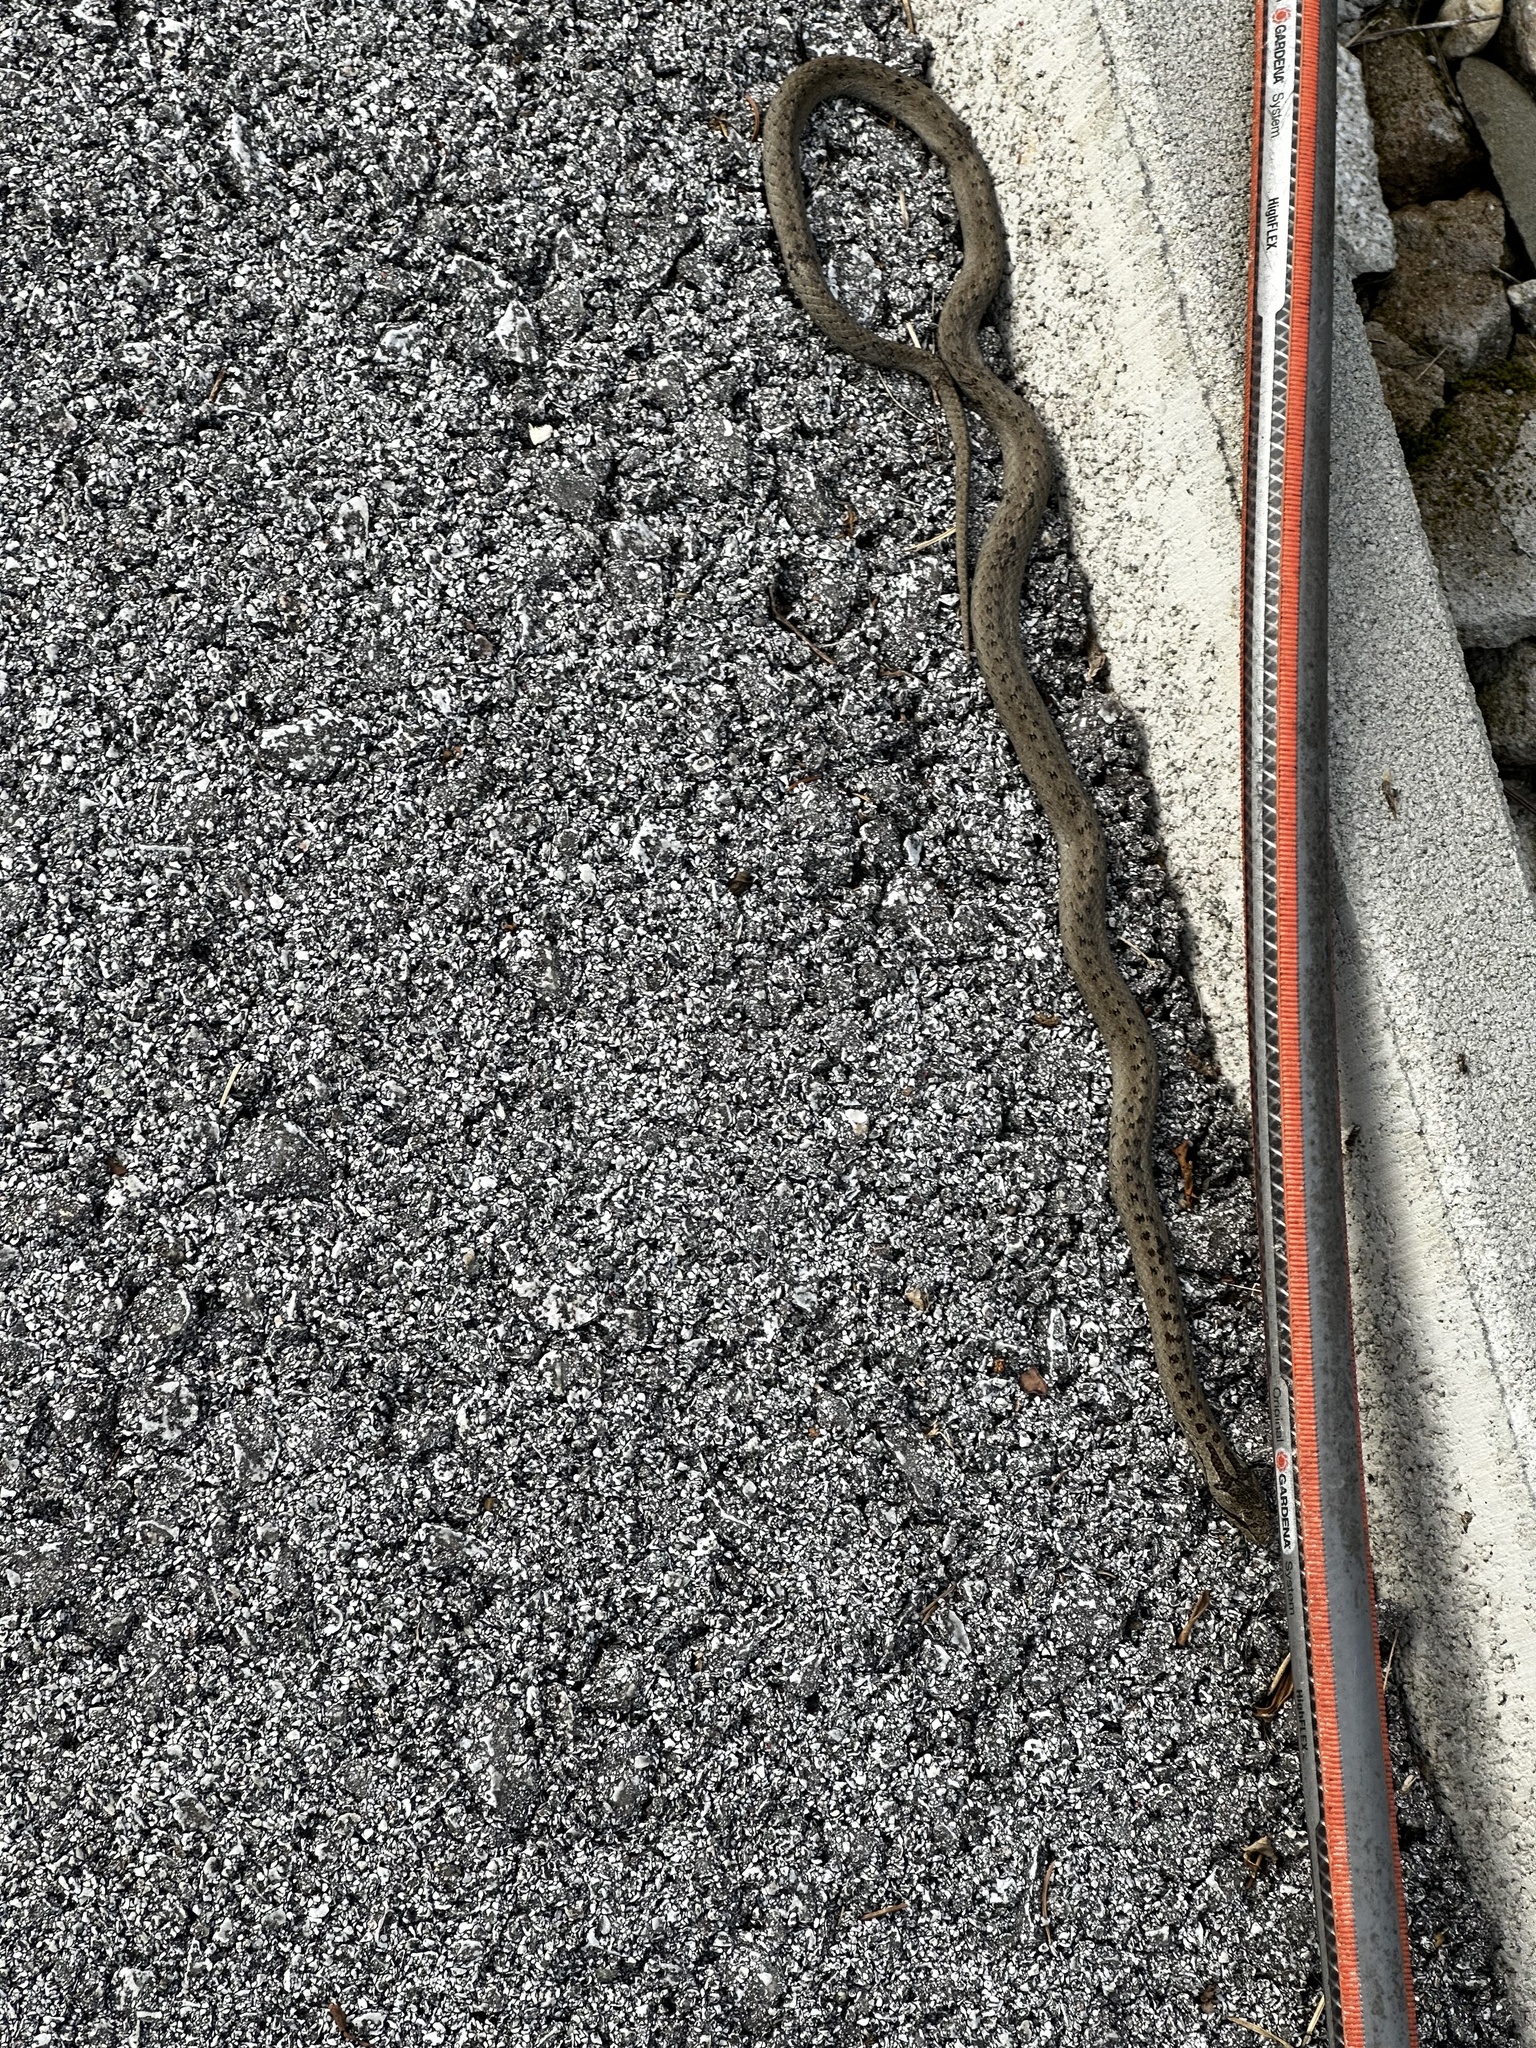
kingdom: Animalia
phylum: Chordata
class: Squamata
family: Colubridae
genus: Coronella
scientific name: Coronella austriaca
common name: Smooth snake
